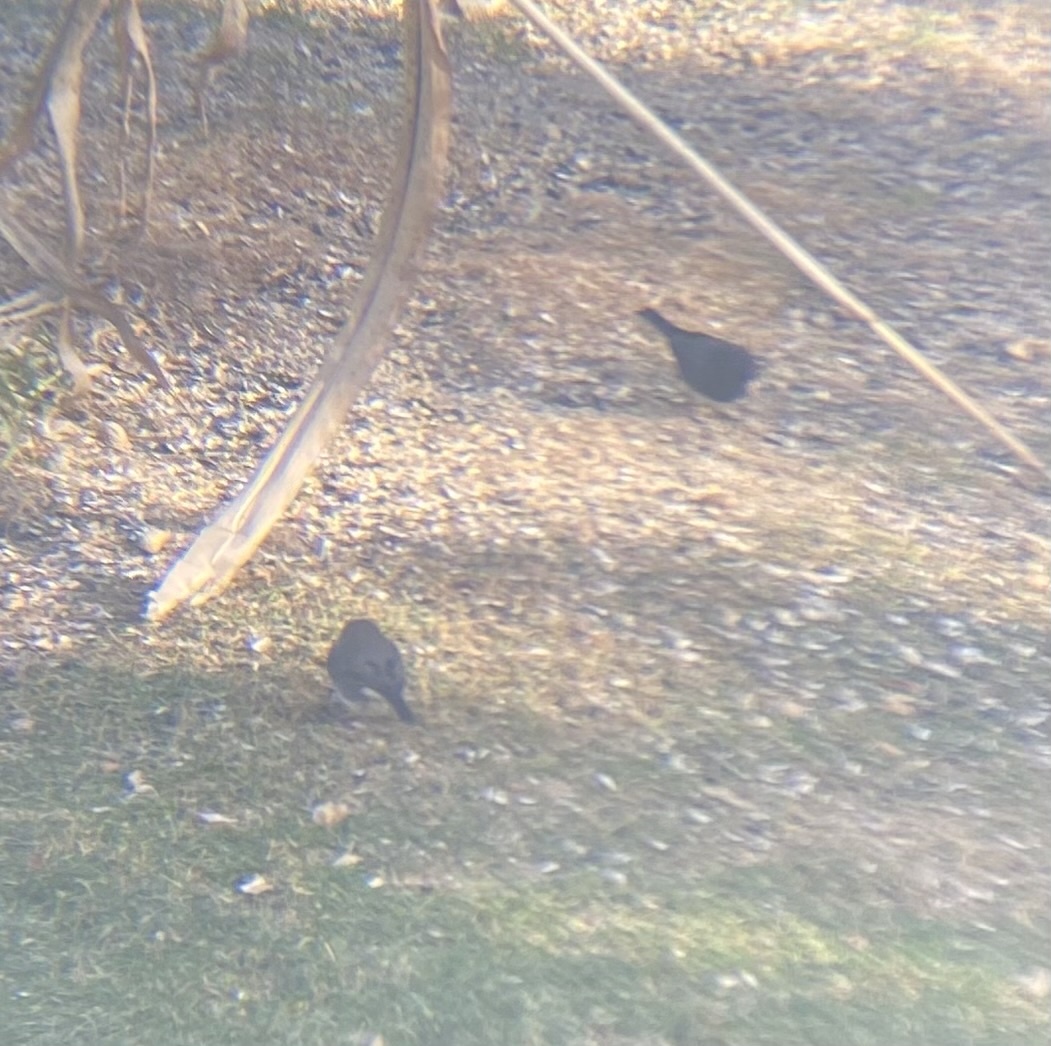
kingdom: Animalia
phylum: Chordata
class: Aves
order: Passeriformes
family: Passerellidae
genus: Junco
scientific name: Junco hyemalis
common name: Dark-eyed junco
